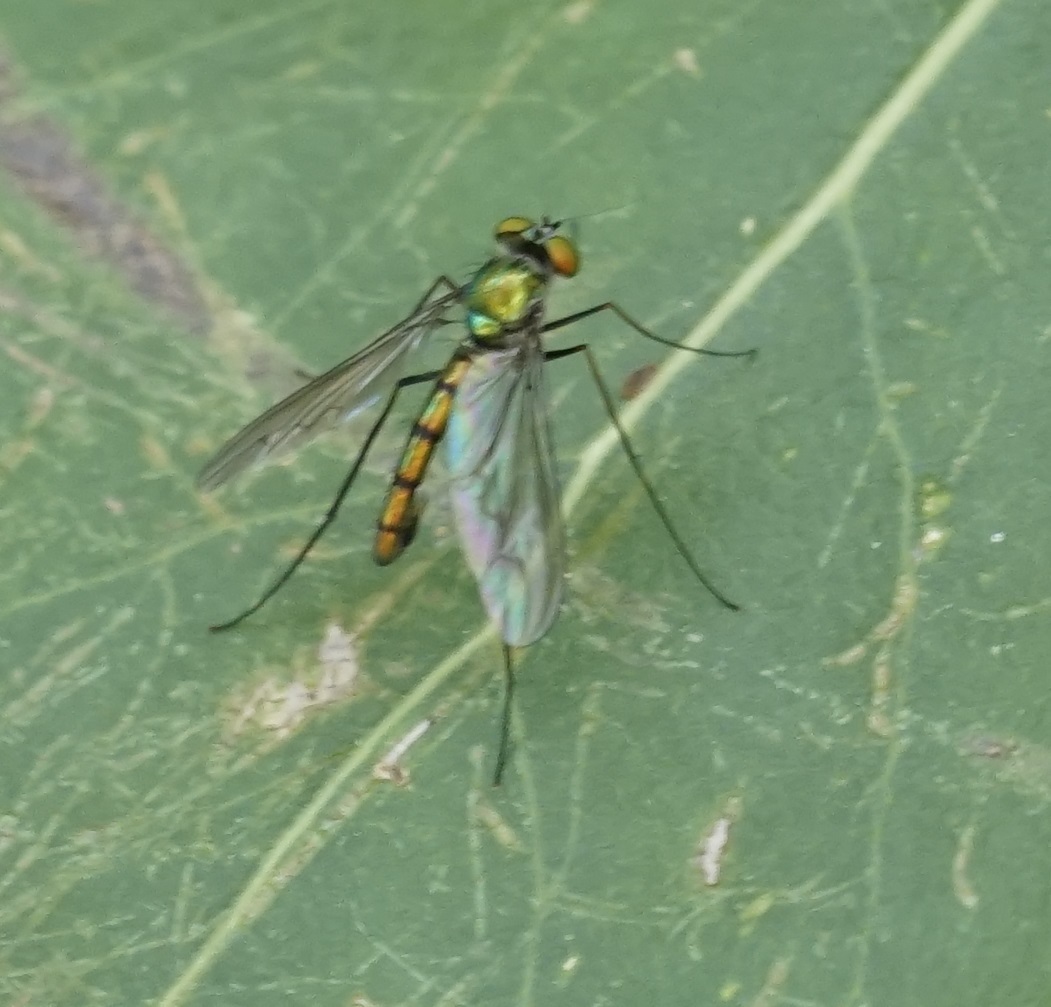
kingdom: Animalia
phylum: Arthropoda
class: Insecta
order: Diptera
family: Dolichopodidae
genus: Heteropsilopus
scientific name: Heteropsilopus cingulipes
